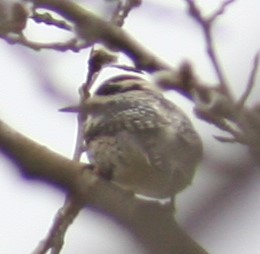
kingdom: Animalia
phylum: Chordata
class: Aves
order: Piciformes
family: Picidae
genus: Sphyrapicus
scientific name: Sphyrapicus varius
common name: Yellow-bellied sapsucker
